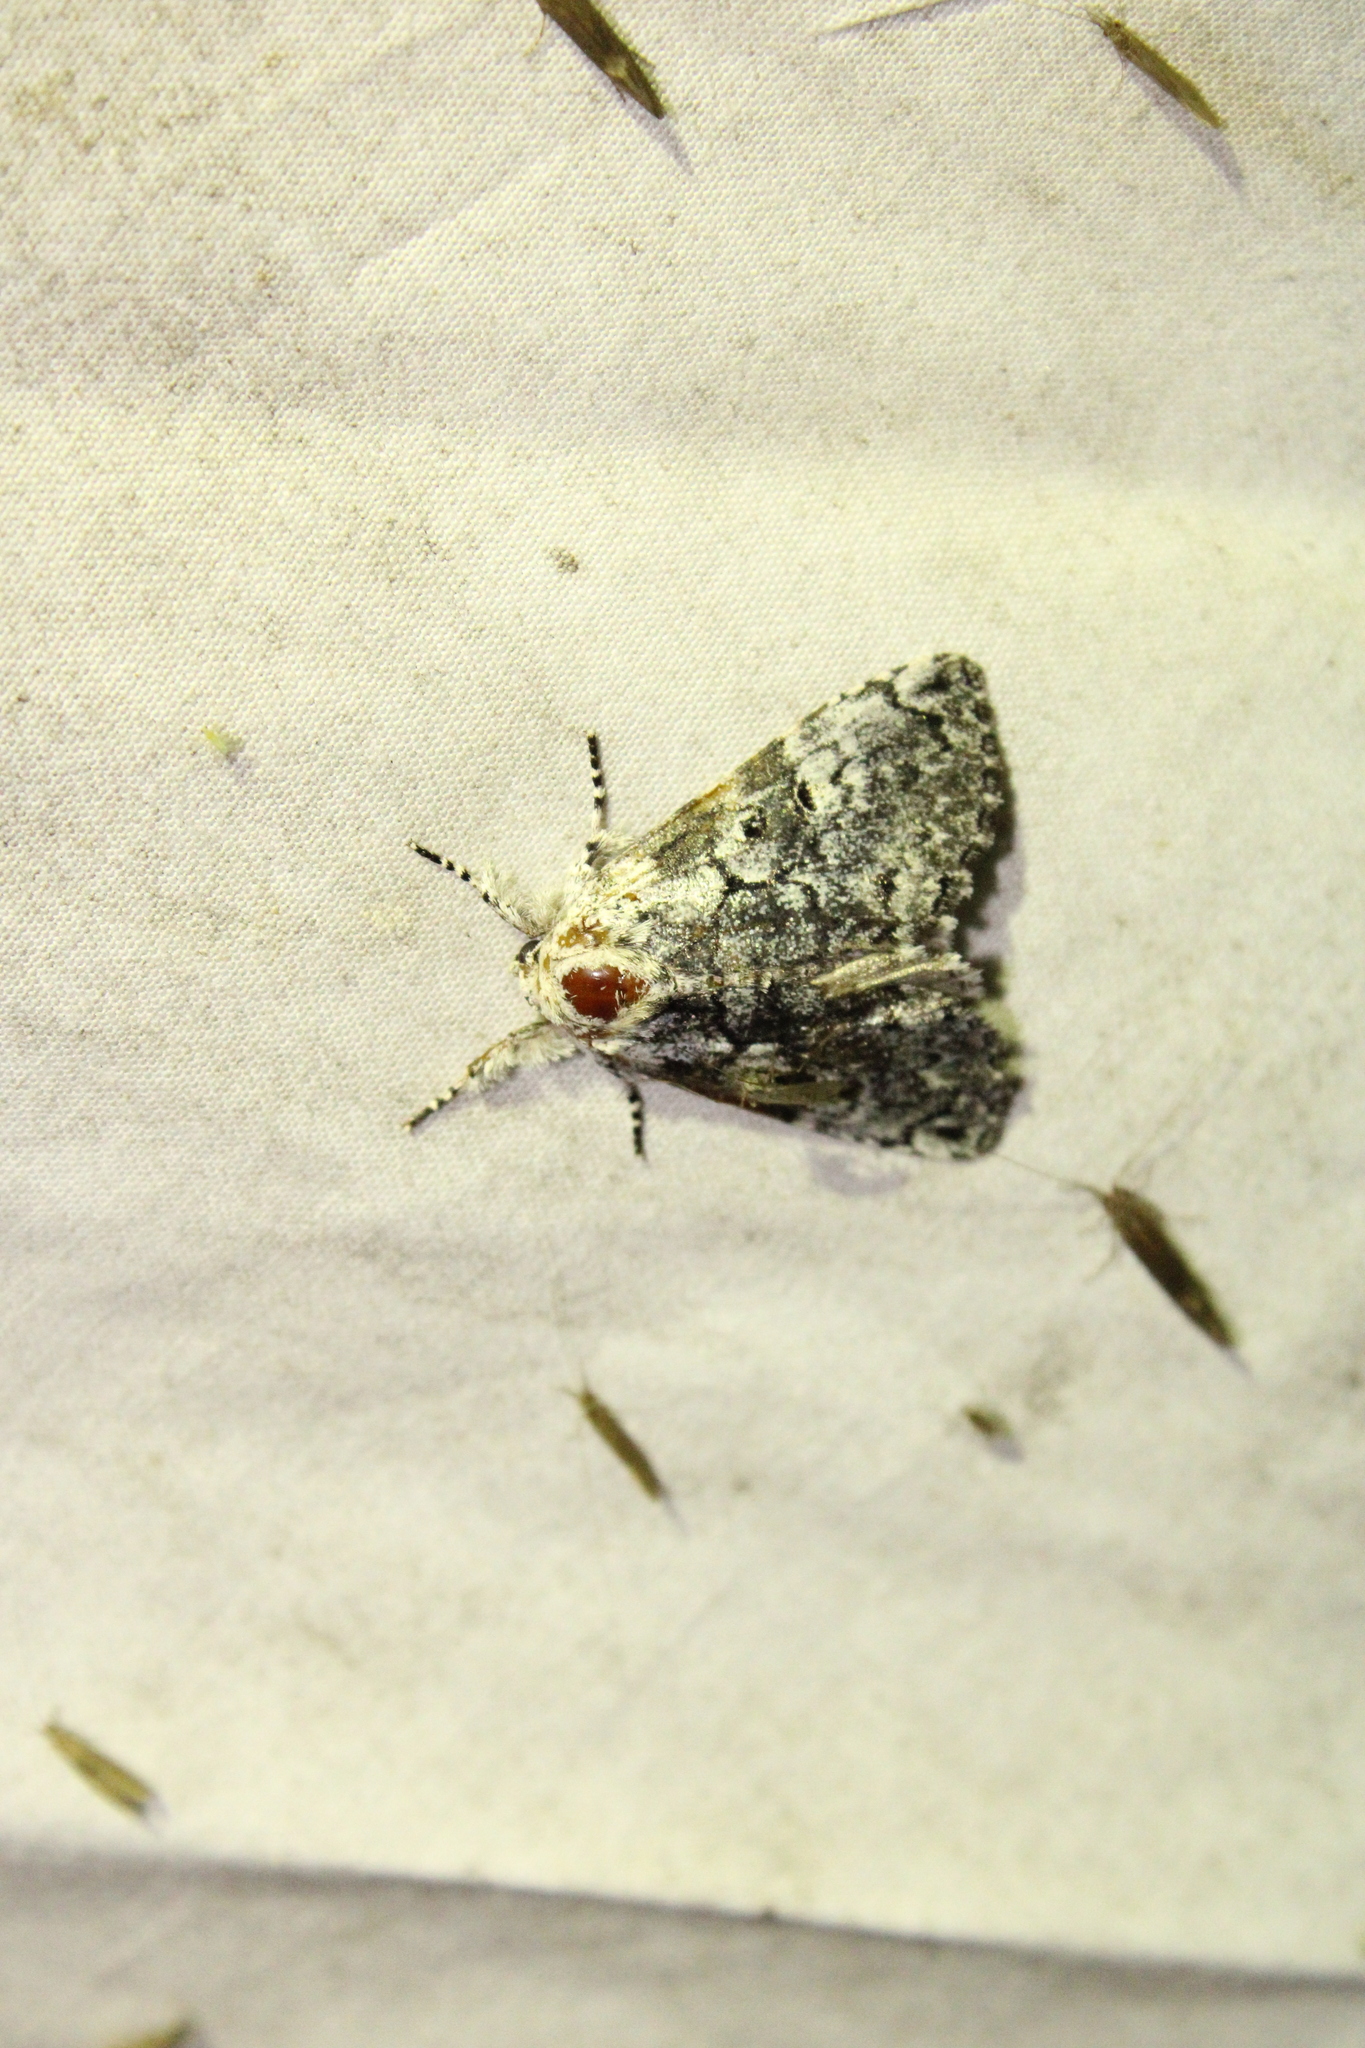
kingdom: Animalia
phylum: Arthropoda
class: Insecta
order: Lepidoptera
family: Noctuidae
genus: Charadra
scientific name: Charadra deridens
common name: Marbled tuffet
